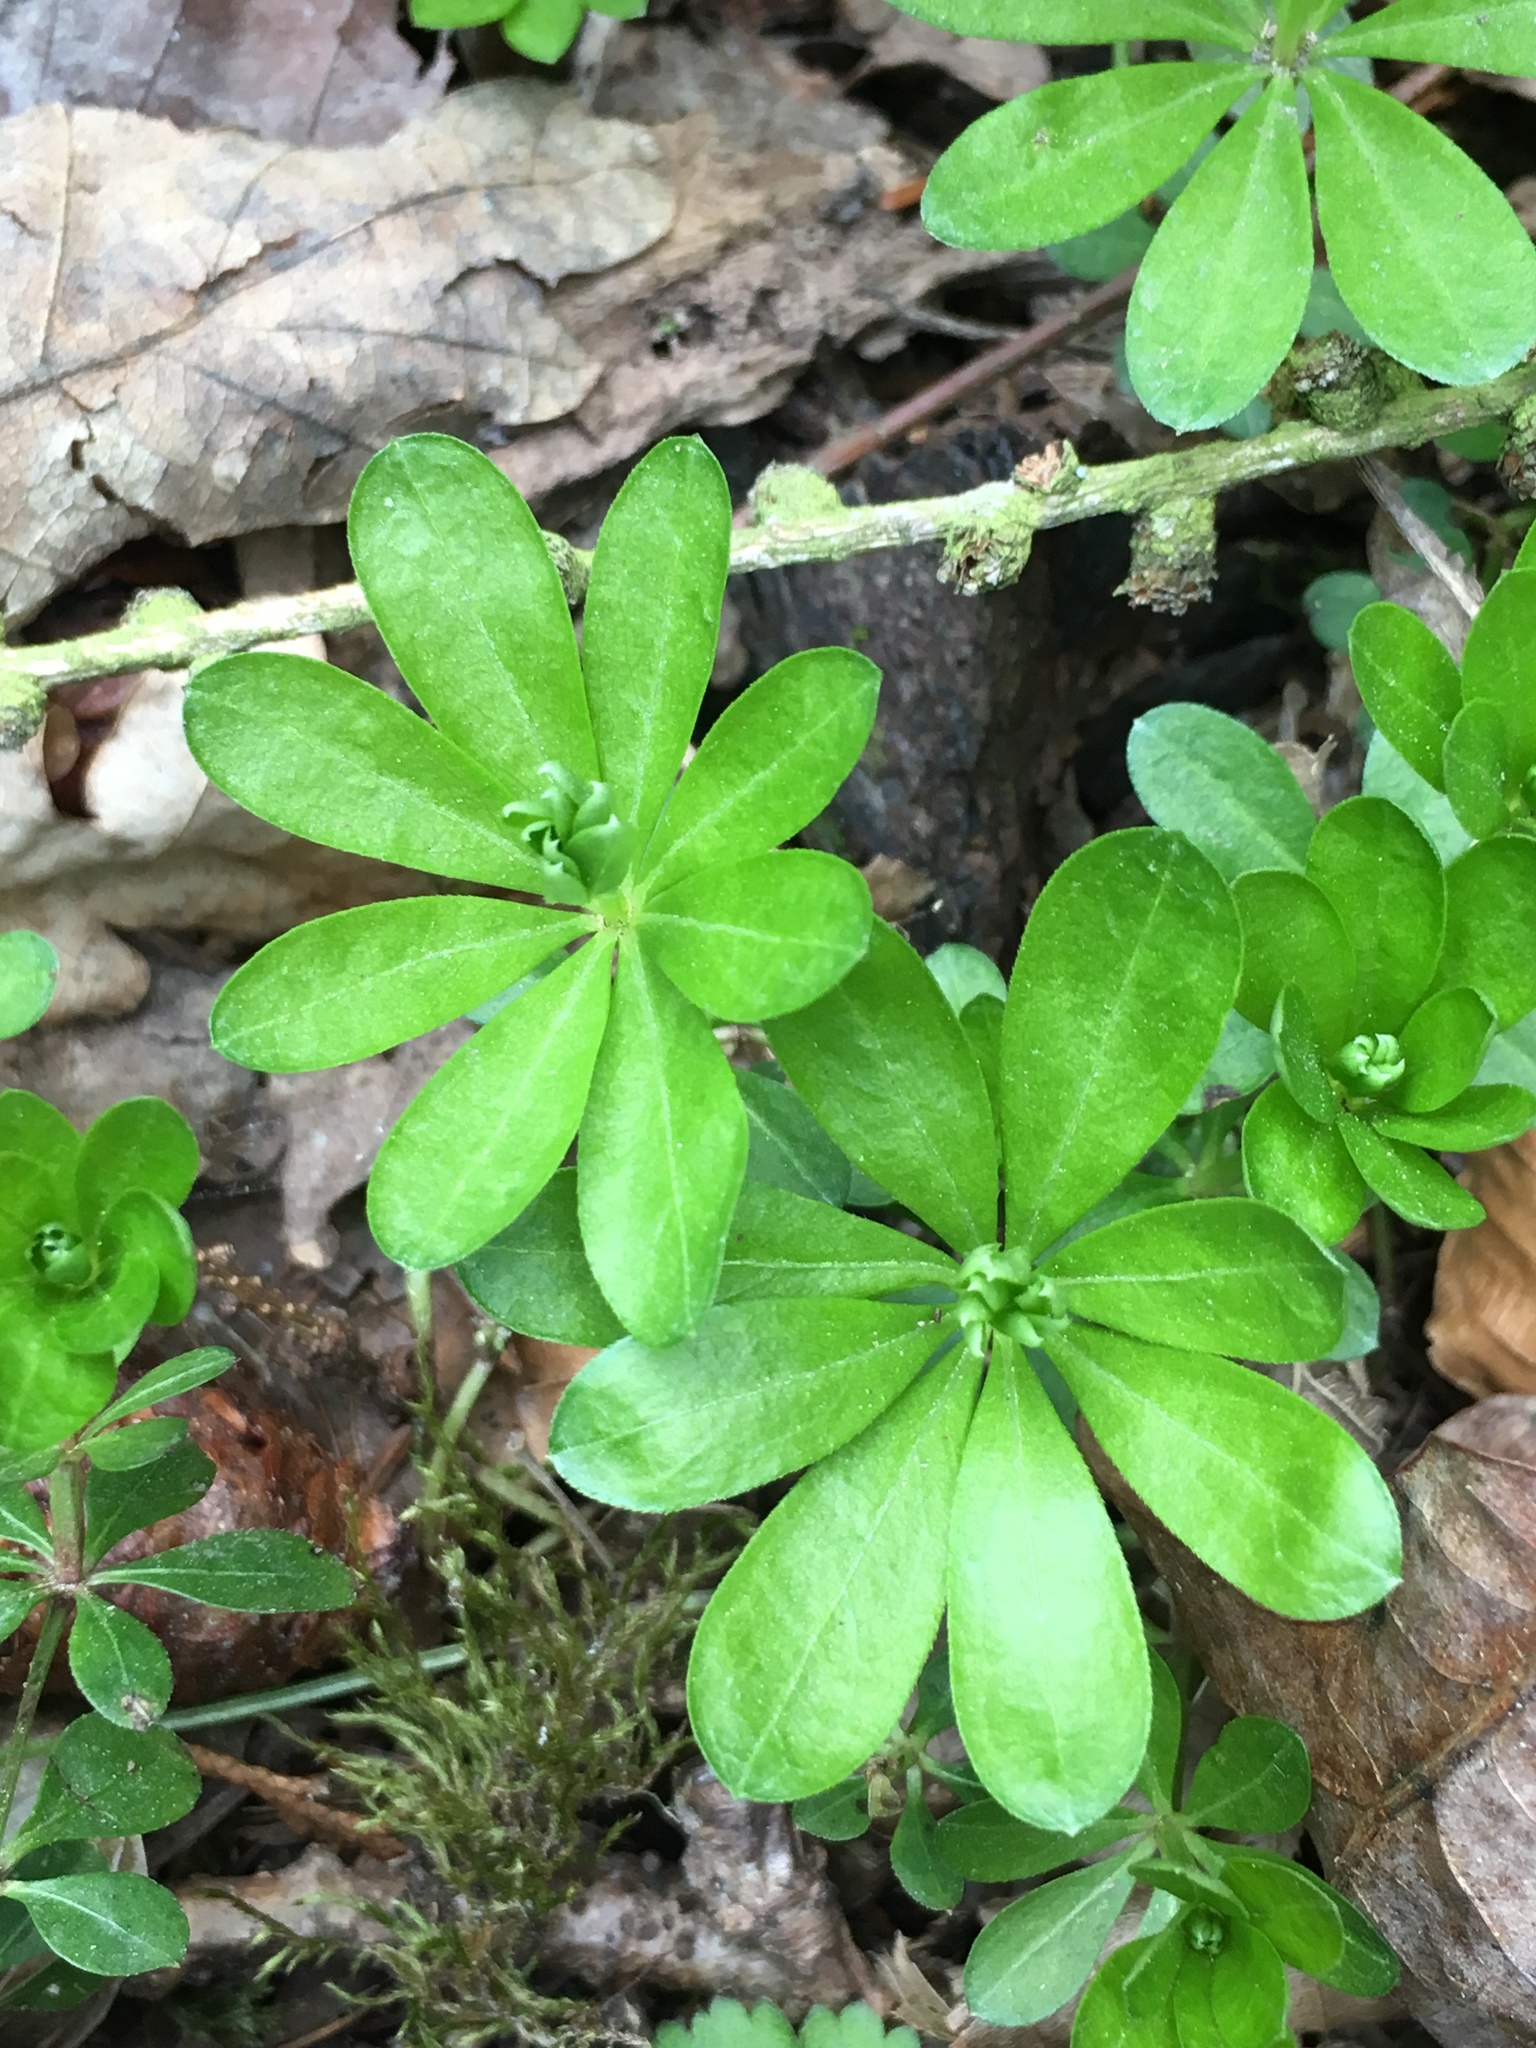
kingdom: Plantae
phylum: Tracheophyta
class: Magnoliopsida
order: Gentianales
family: Rubiaceae
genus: Galium
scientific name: Galium odoratum
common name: Sweet woodruff
